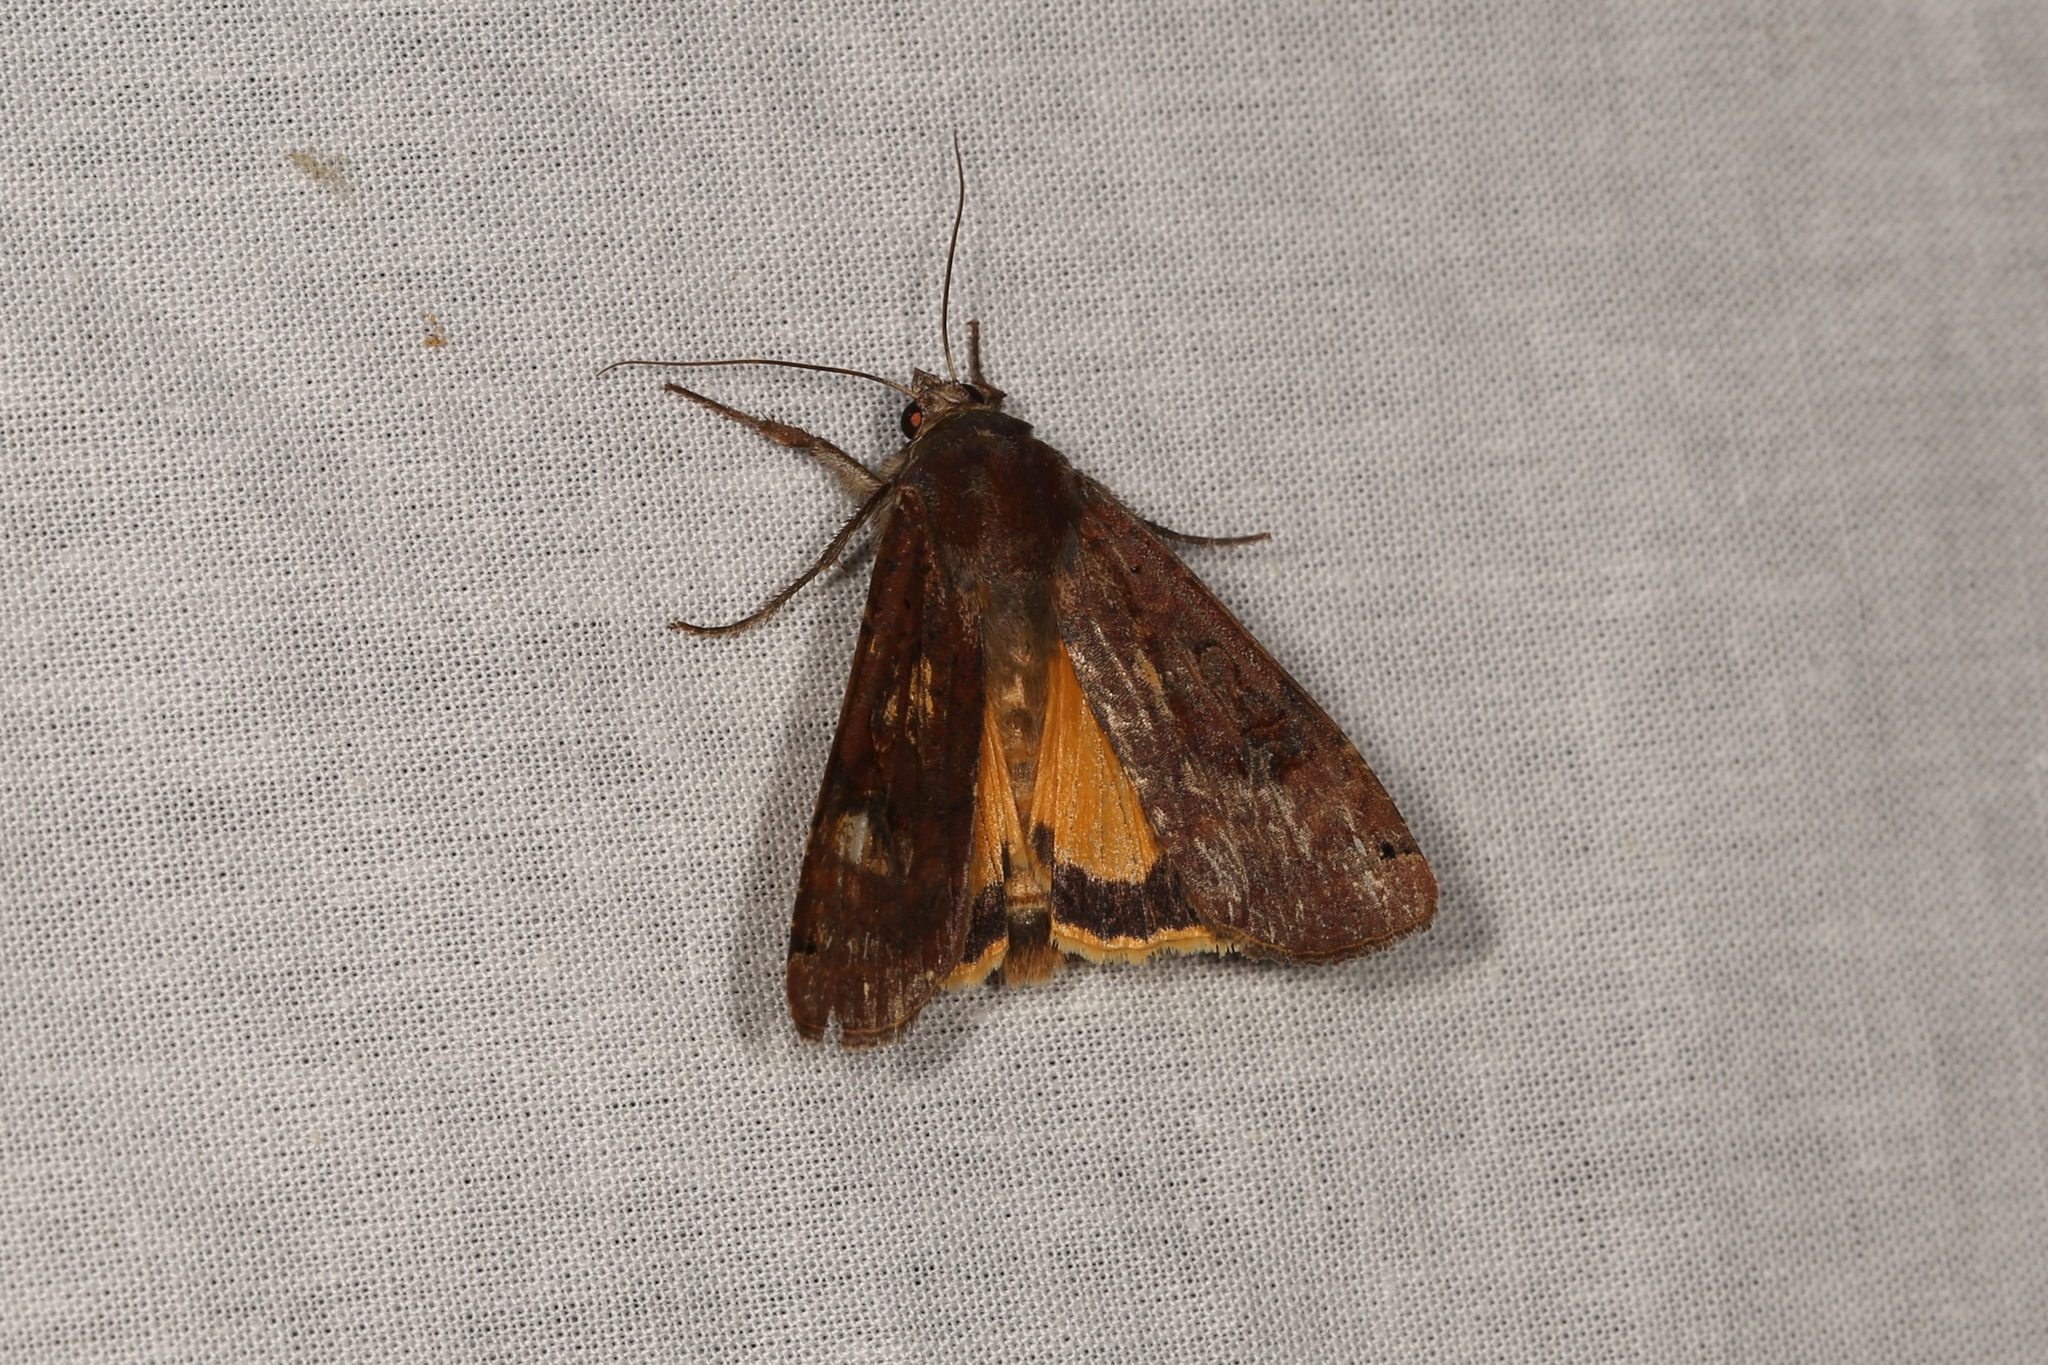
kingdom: Animalia
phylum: Arthropoda
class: Insecta
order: Lepidoptera
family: Noctuidae
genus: Noctua
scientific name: Noctua pronuba
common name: Large yellow underwing
